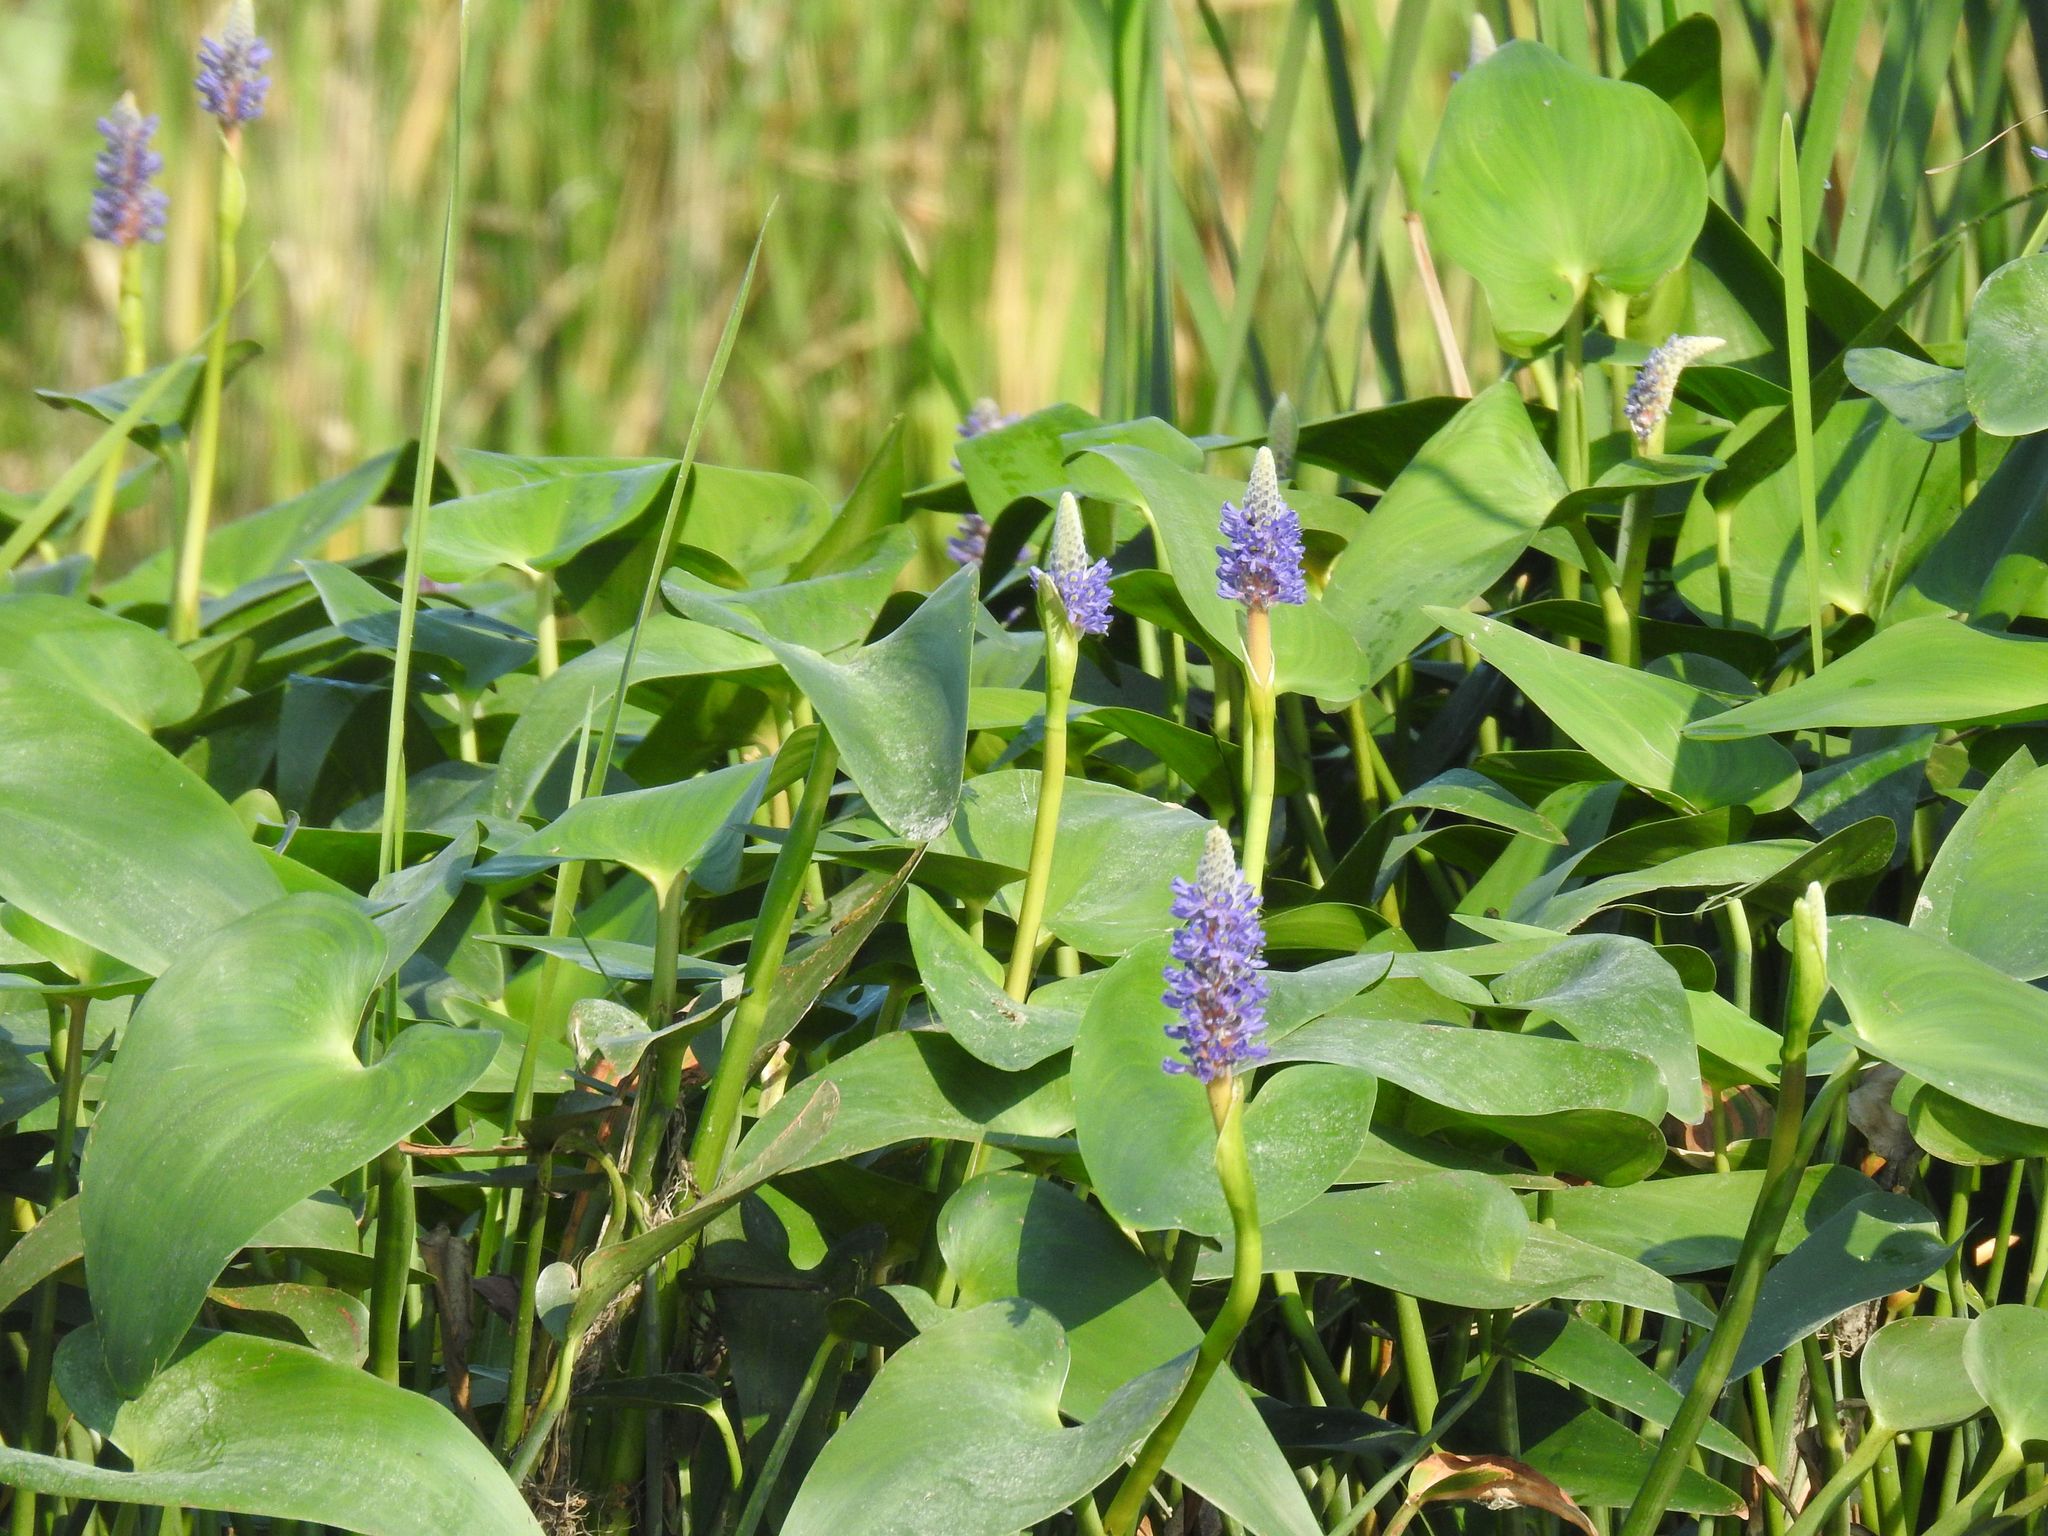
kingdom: Plantae
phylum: Tracheophyta
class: Liliopsida
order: Commelinales
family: Pontederiaceae
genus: Pontederia
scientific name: Pontederia cordata
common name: Pickerelweed
